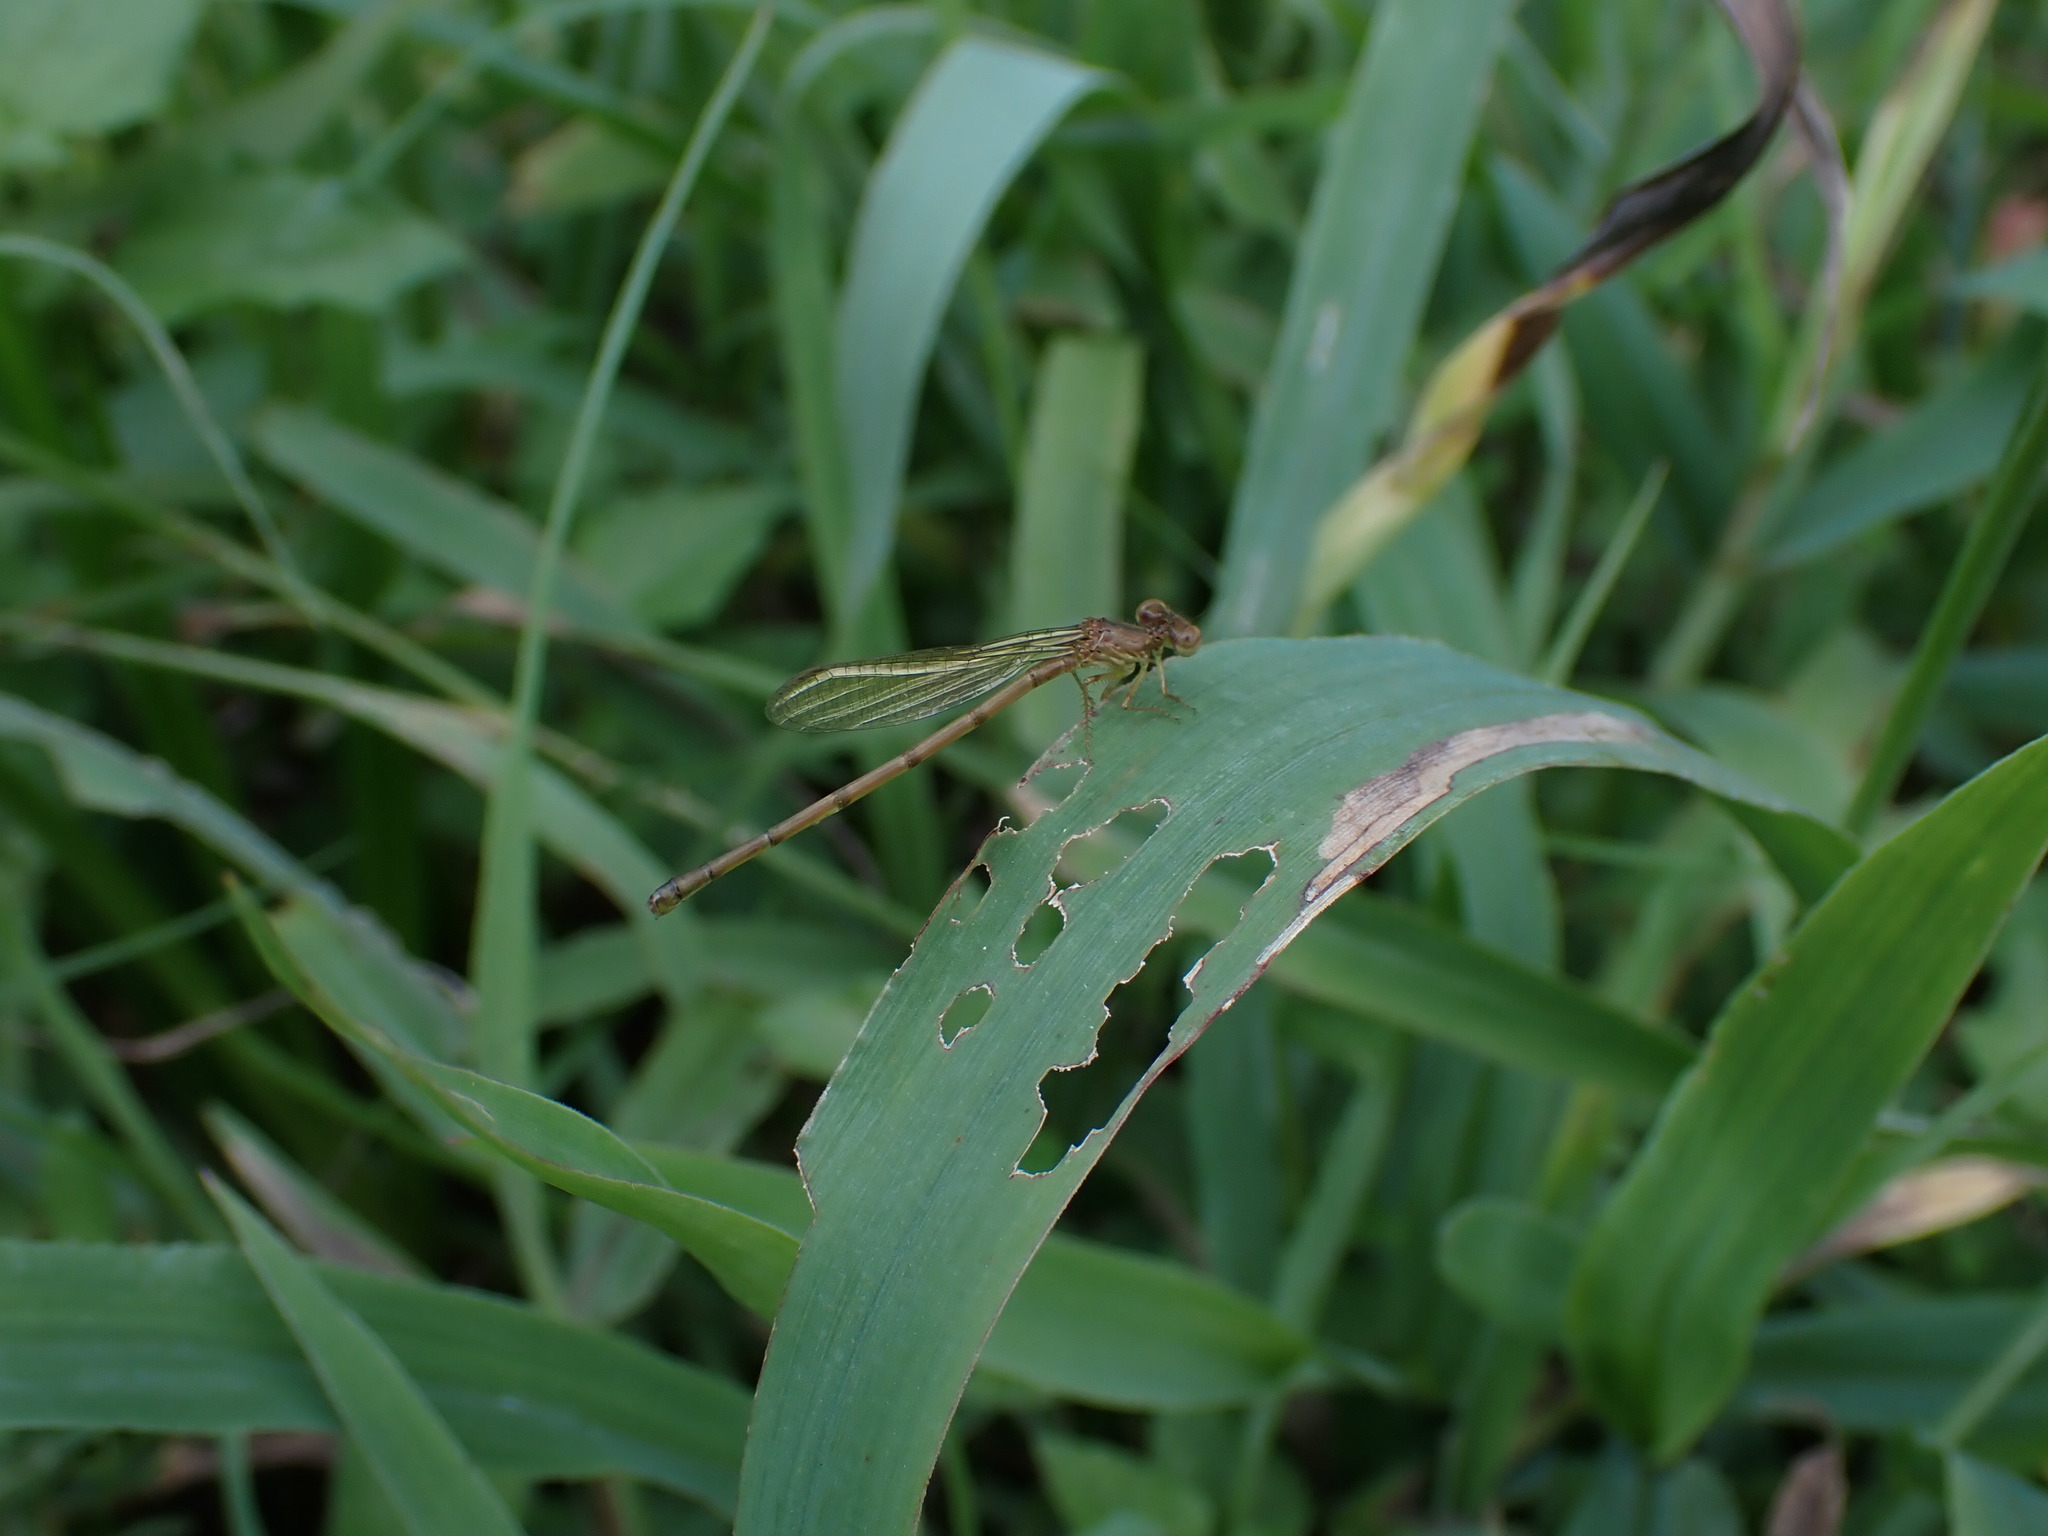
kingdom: Animalia
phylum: Arthropoda
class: Insecta
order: Odonata
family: Coenagrionidae
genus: Telebasis
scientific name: Telebasis salva
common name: Desert firetail
